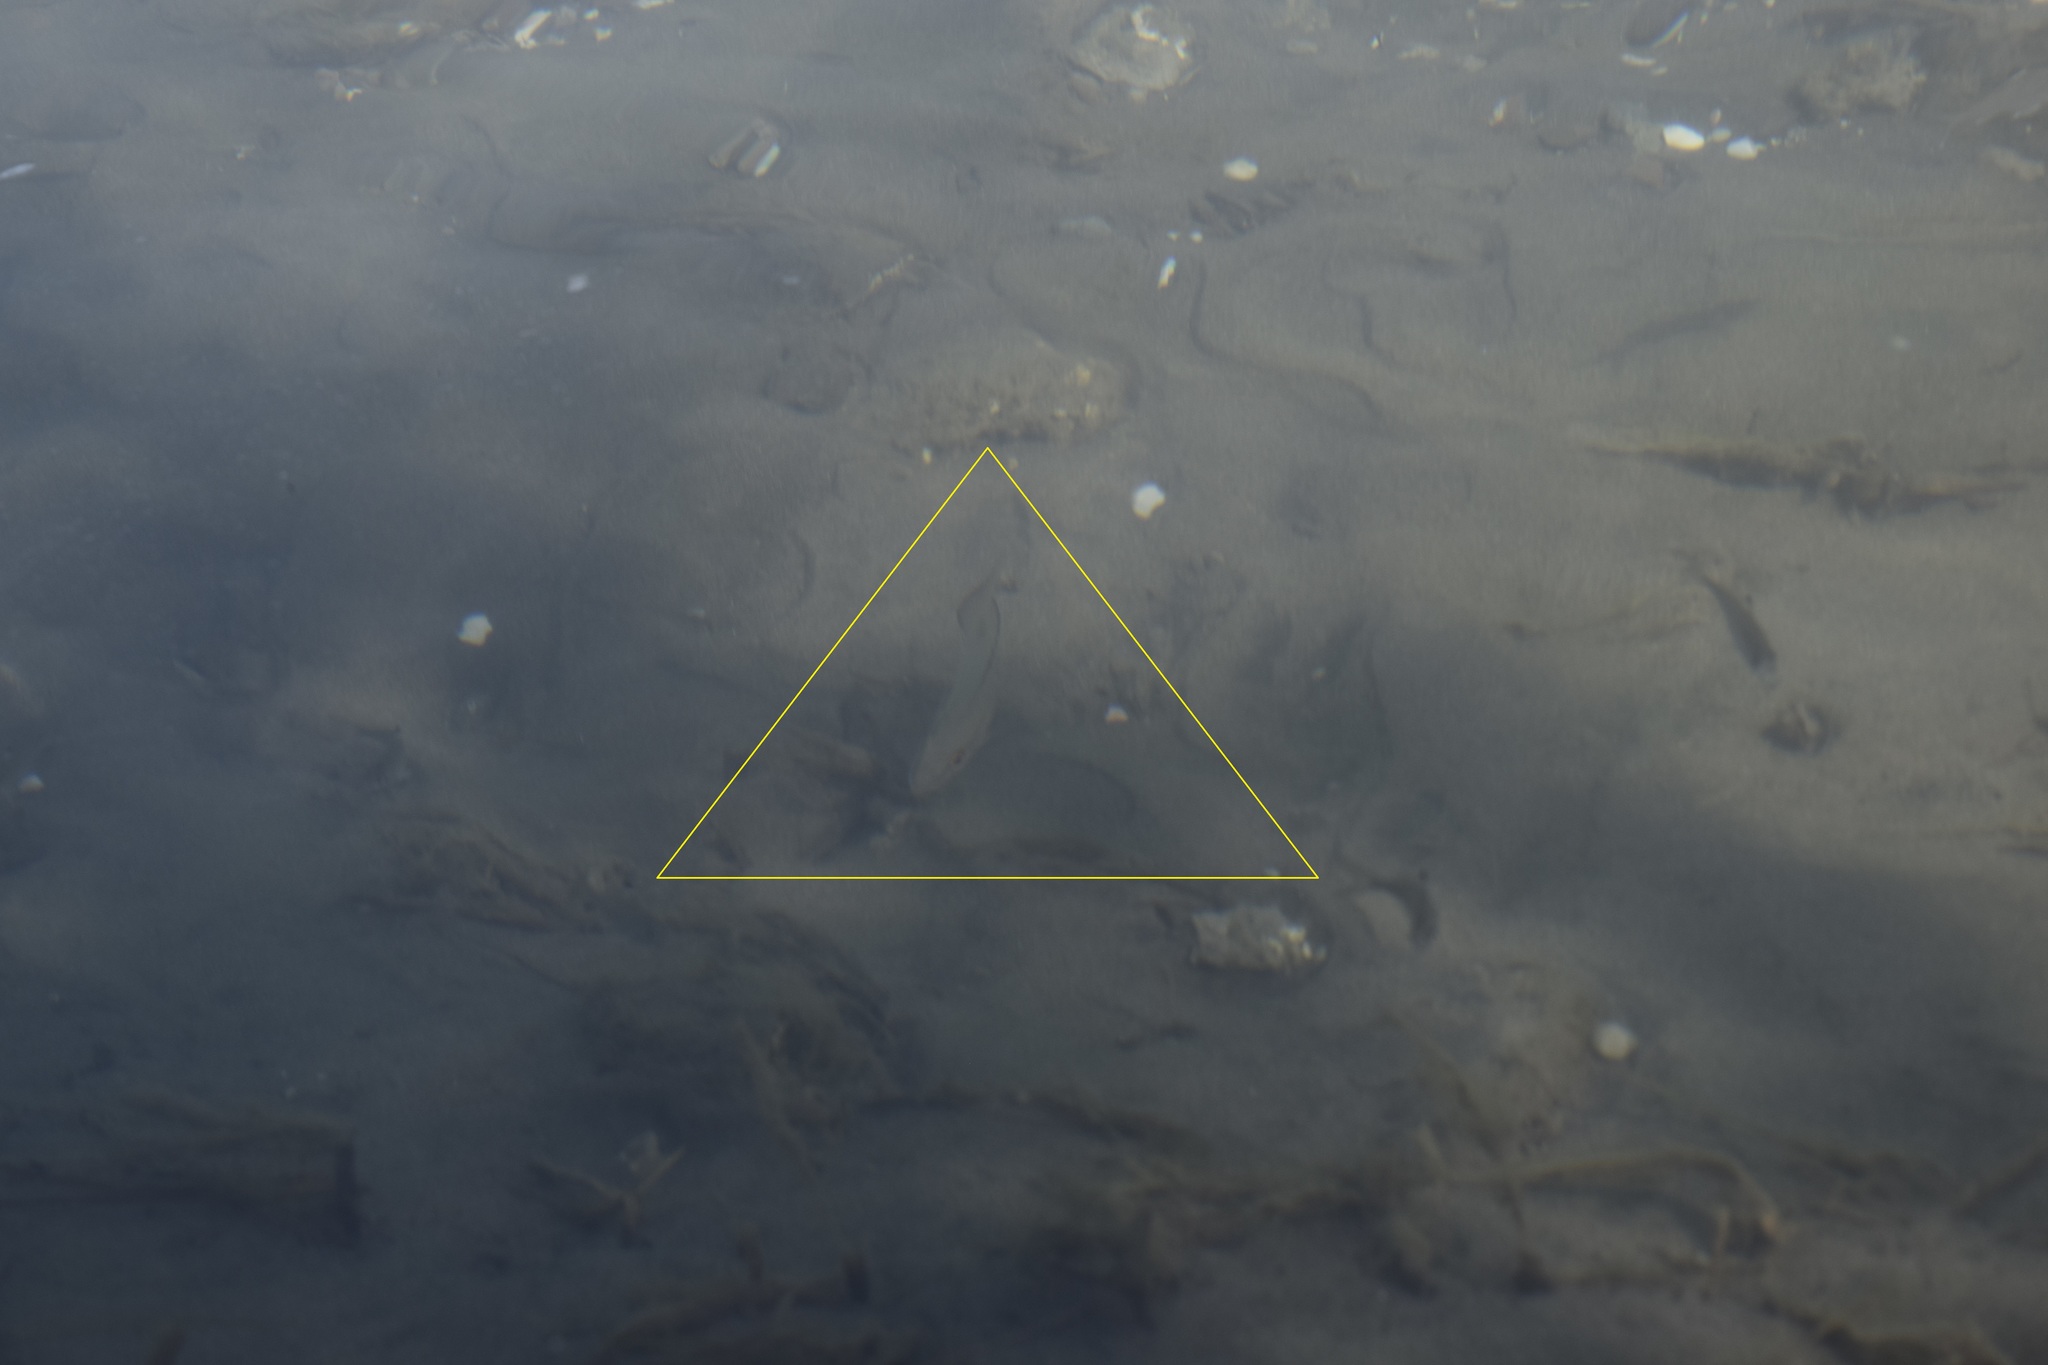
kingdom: Animalia
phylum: Chordata
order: Perciformes
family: Lutjanidae
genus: Lutjanus
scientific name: Lutjanus griseus
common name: Gray snapper
